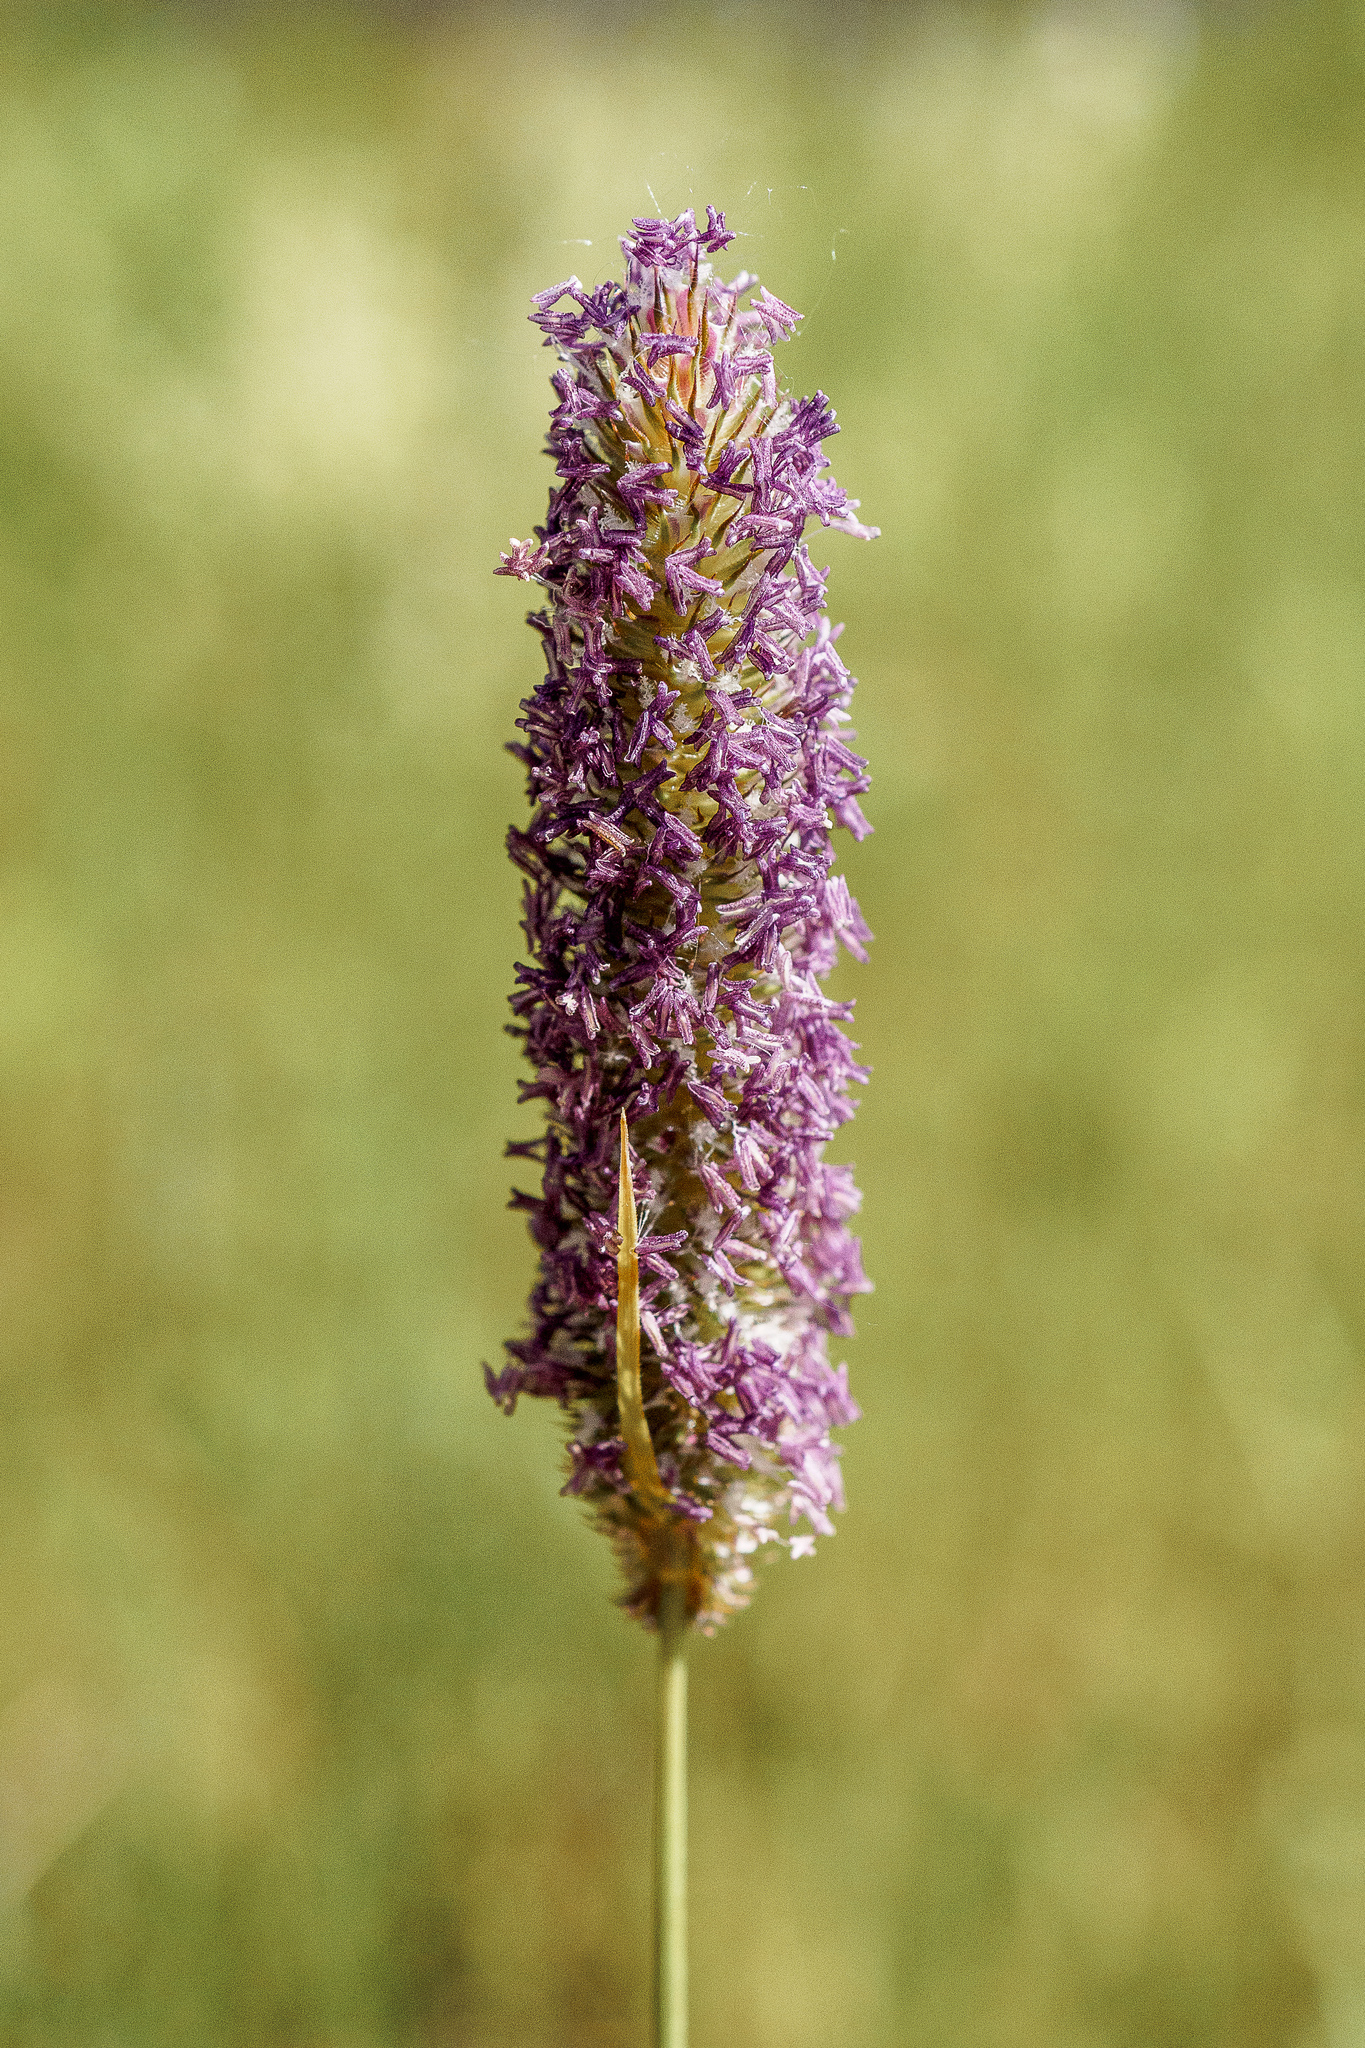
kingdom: Plantae
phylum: Tracheophyta
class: Liliopsida
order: Poales
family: Poaceae
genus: Phleum
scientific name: Phleum pratense
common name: Timothy grass
